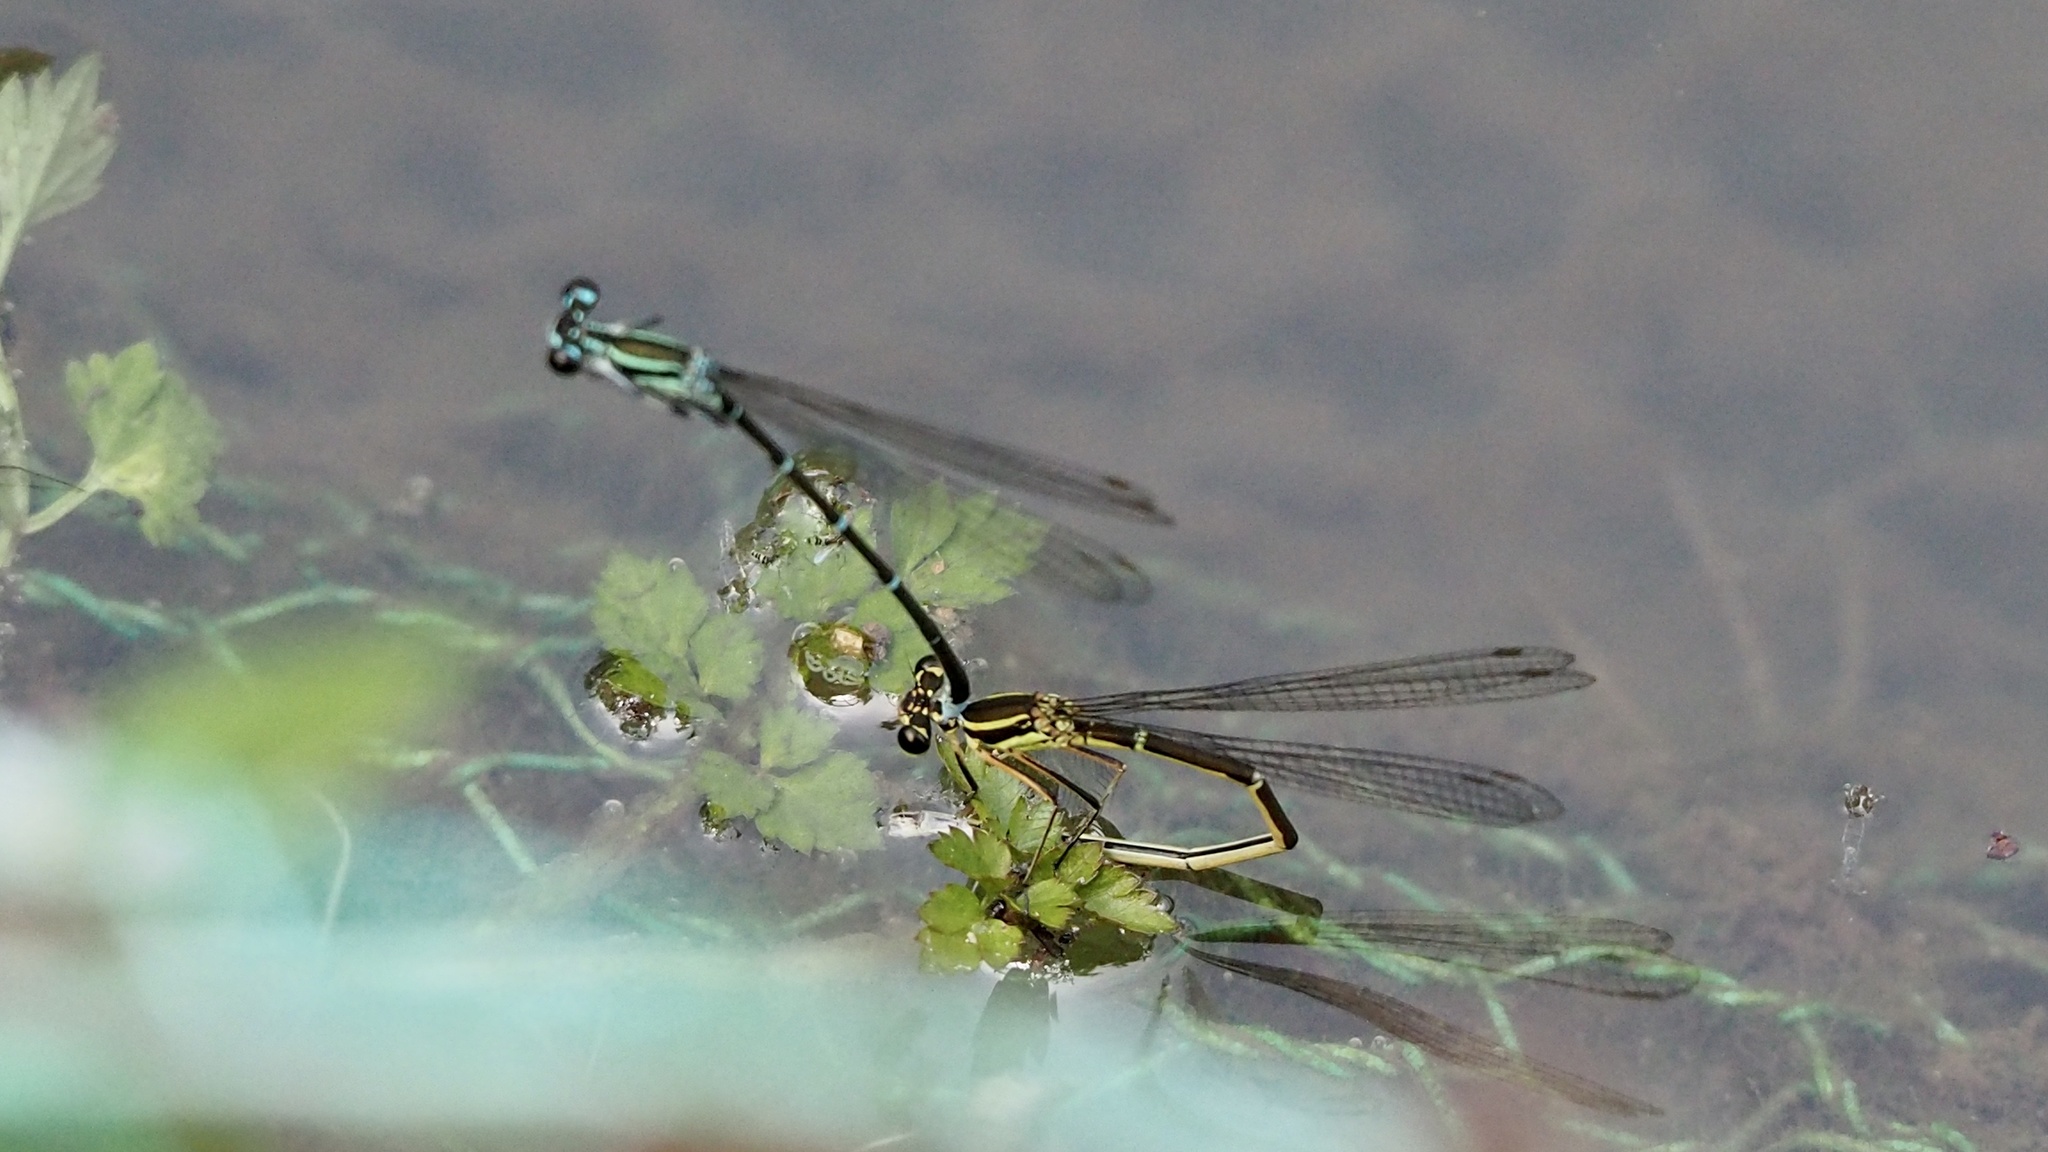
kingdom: Animalia
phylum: Arthropoda
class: Insecta
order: Odonata
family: Platycnemididae
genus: Pseudocopera
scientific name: Pseudocopera annulata
